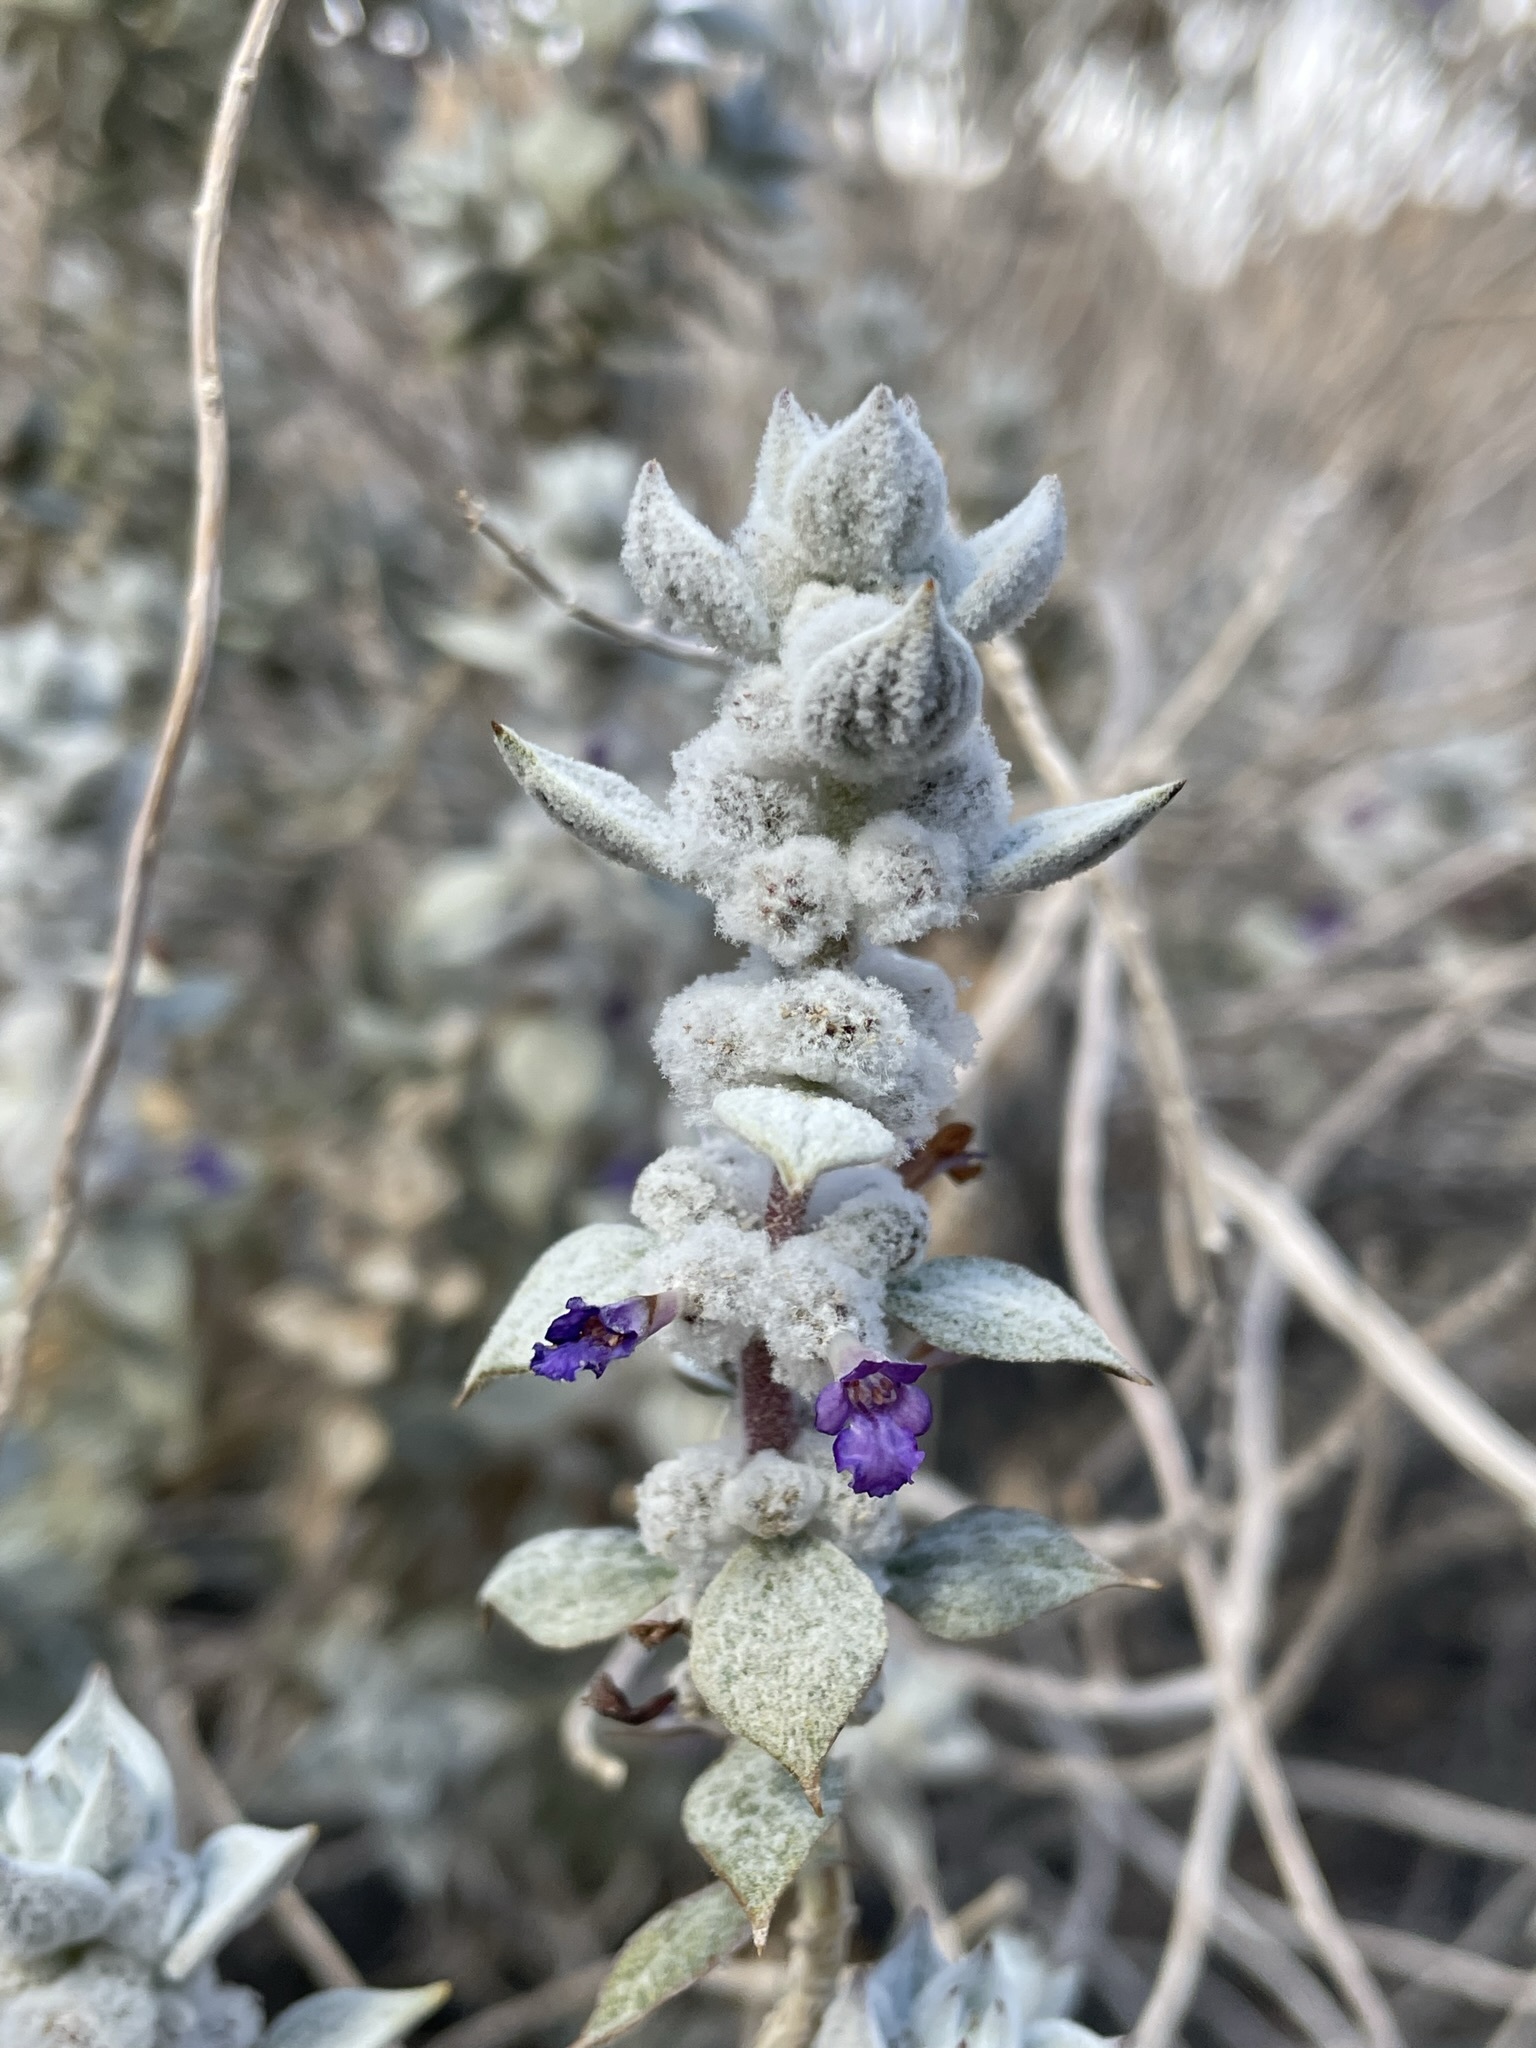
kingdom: Plantae
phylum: Tracheophyta
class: Magnoliopsida
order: Lamiales
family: Lamiaceae
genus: Salvia
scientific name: Salvia funerea
